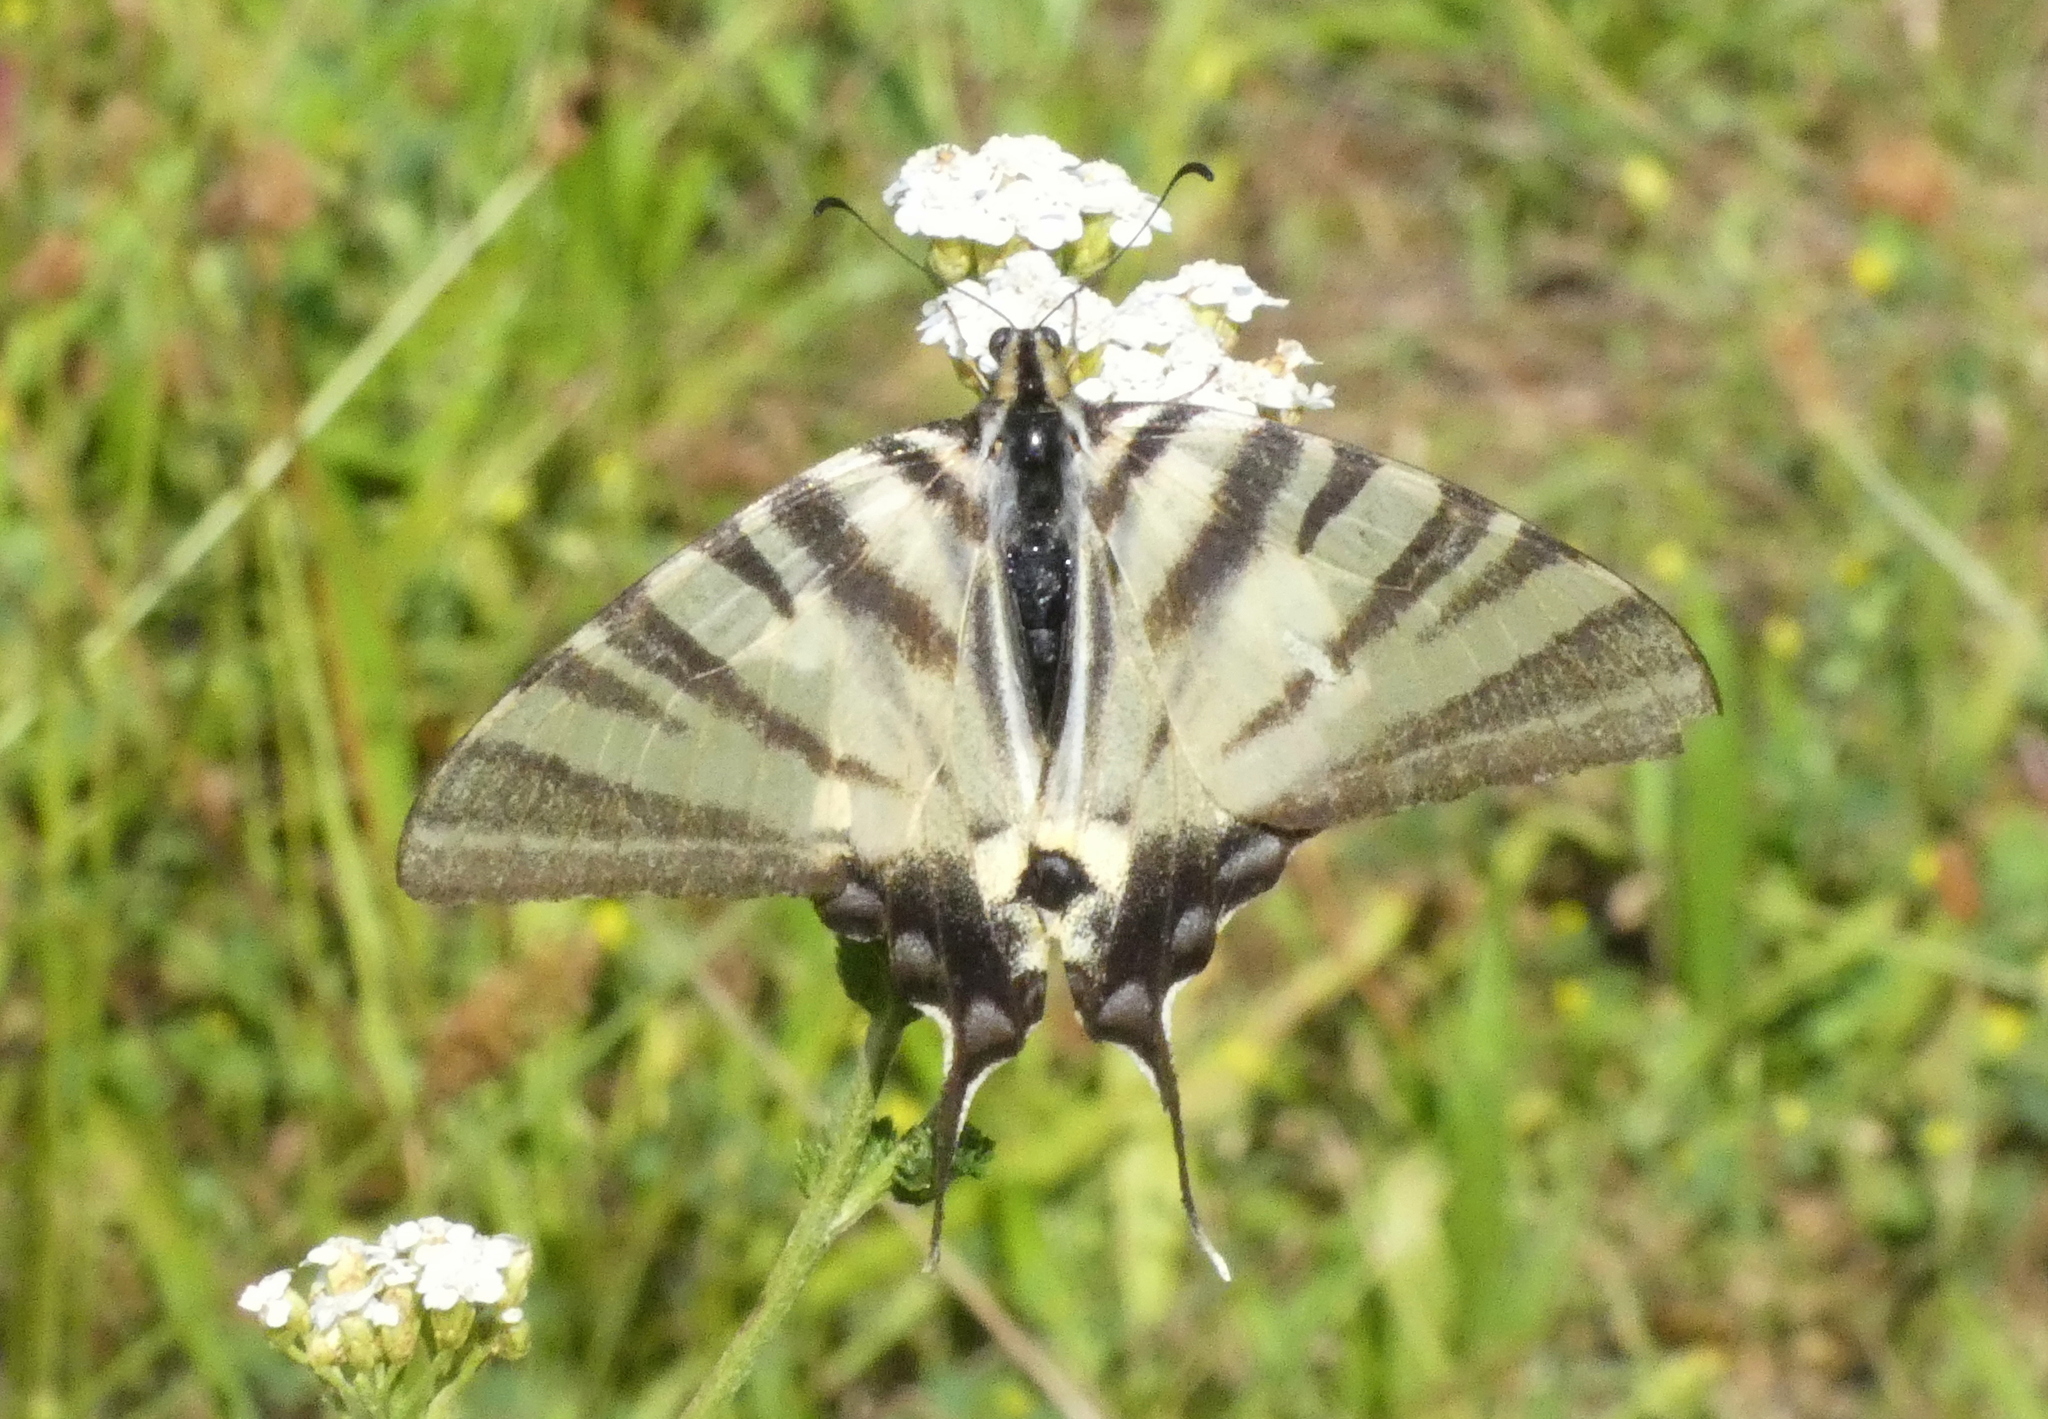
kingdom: Animalia
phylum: Arthropoda
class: Insecta
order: Lepidoptera
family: Papilionidae
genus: Iphiclides
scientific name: Iphiclides podalirius
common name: Scarce swallowtail
